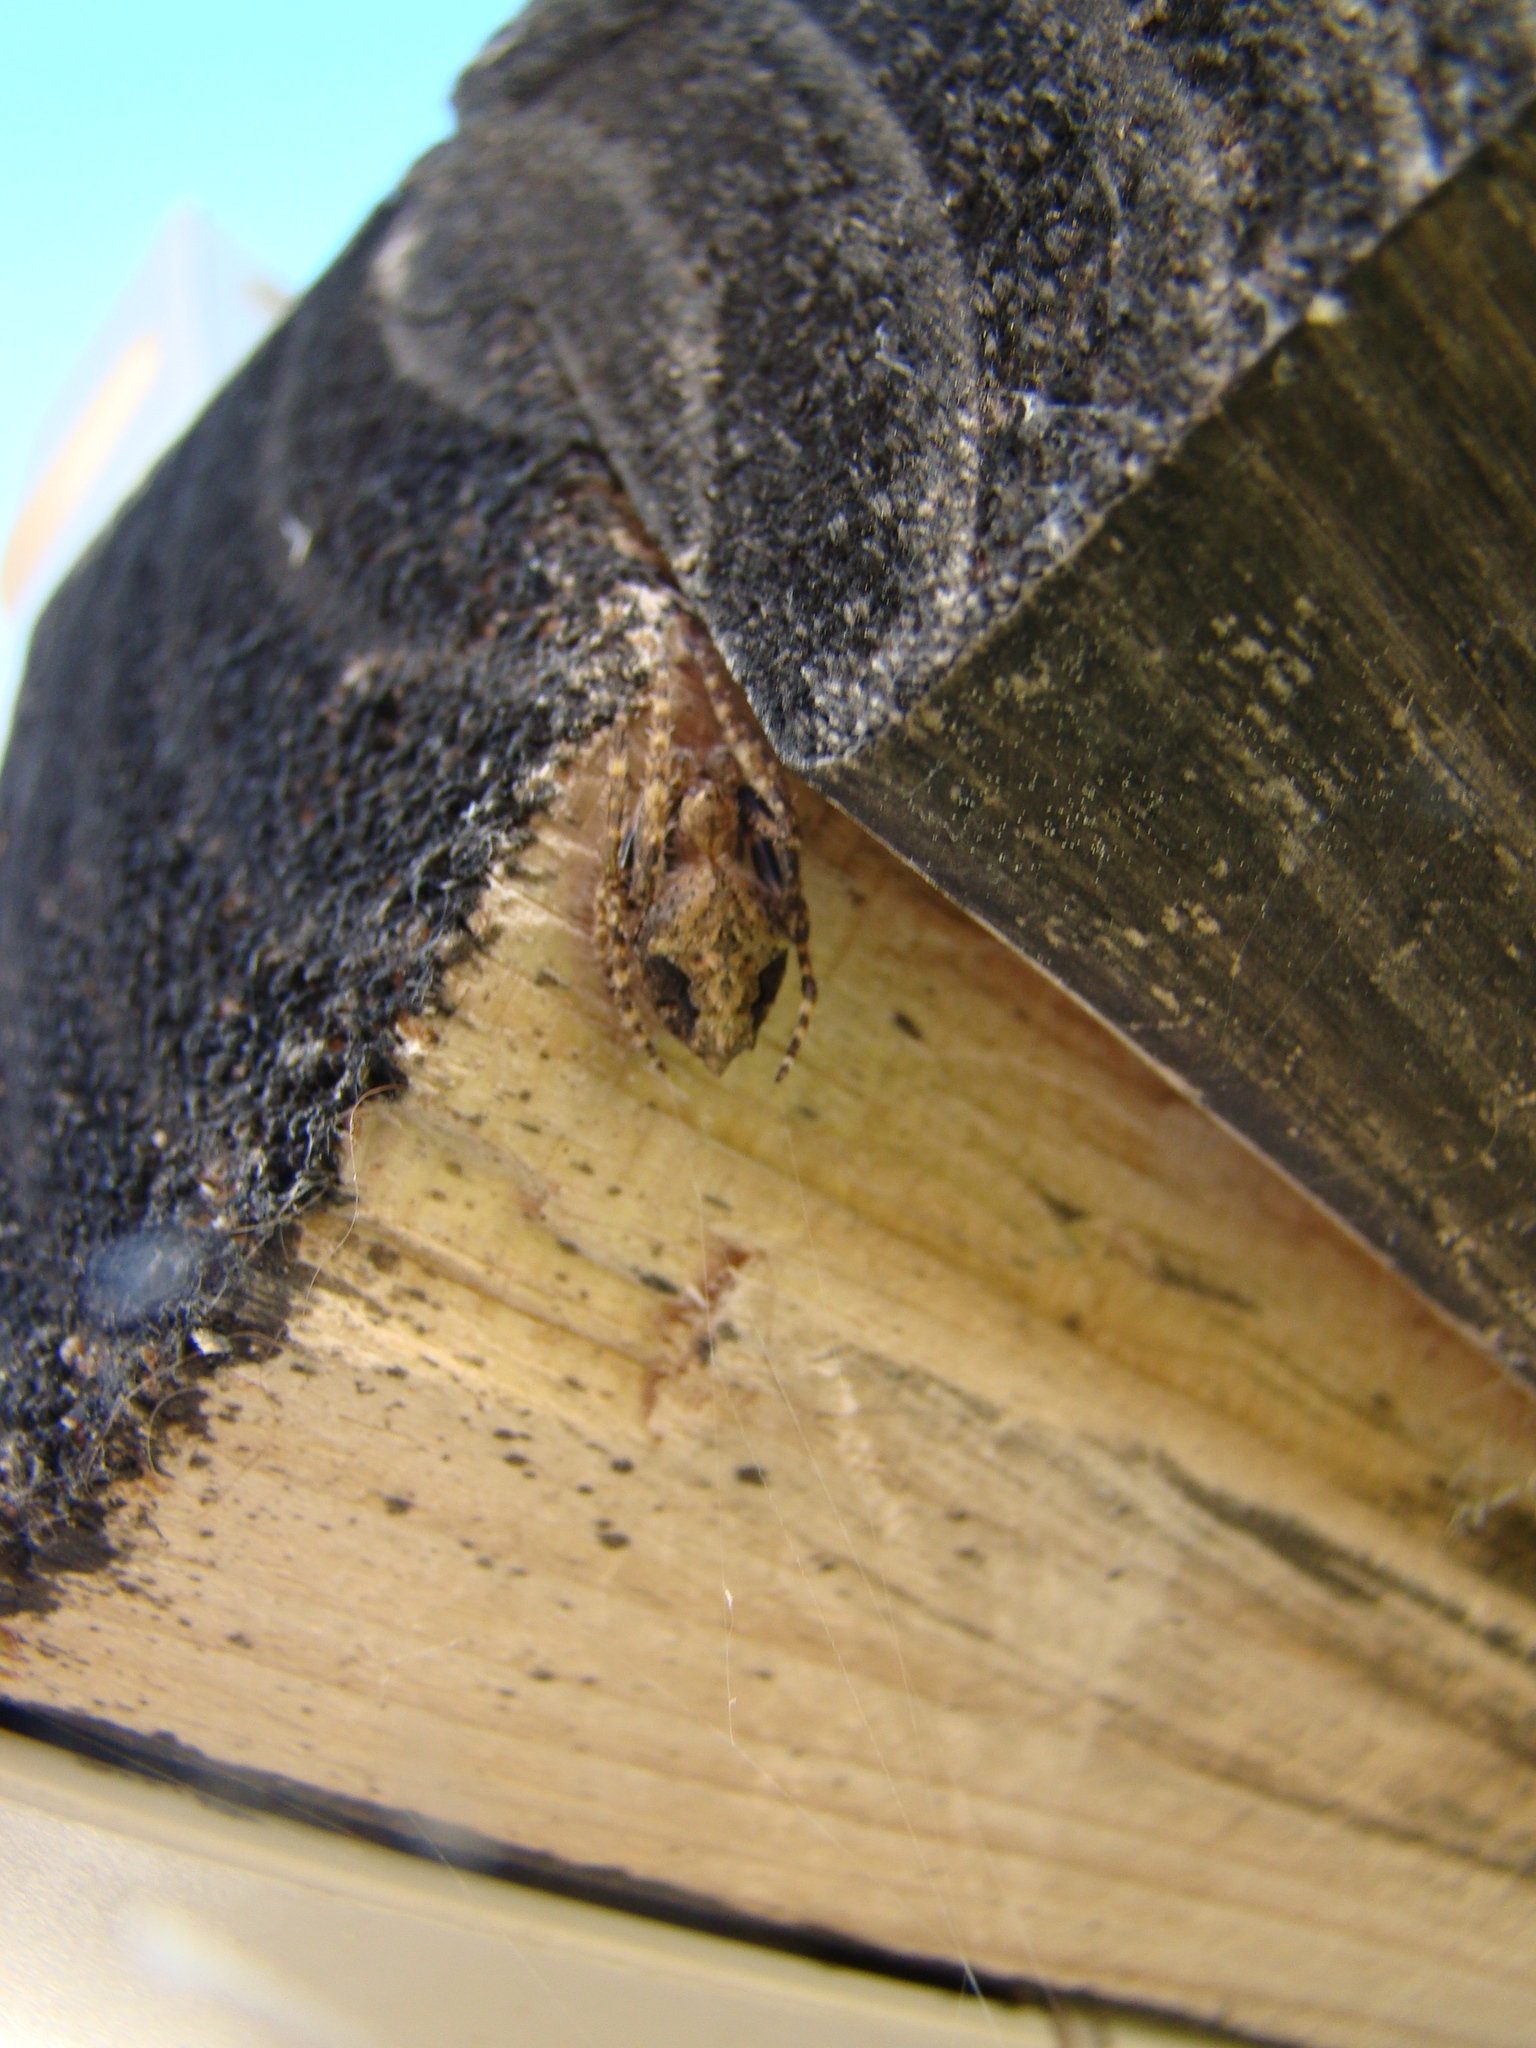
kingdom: Animalia
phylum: Arthropoda
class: Arachnida
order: Araneae
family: Araneidae
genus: Eriophora
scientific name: Eriophora pustulosa
